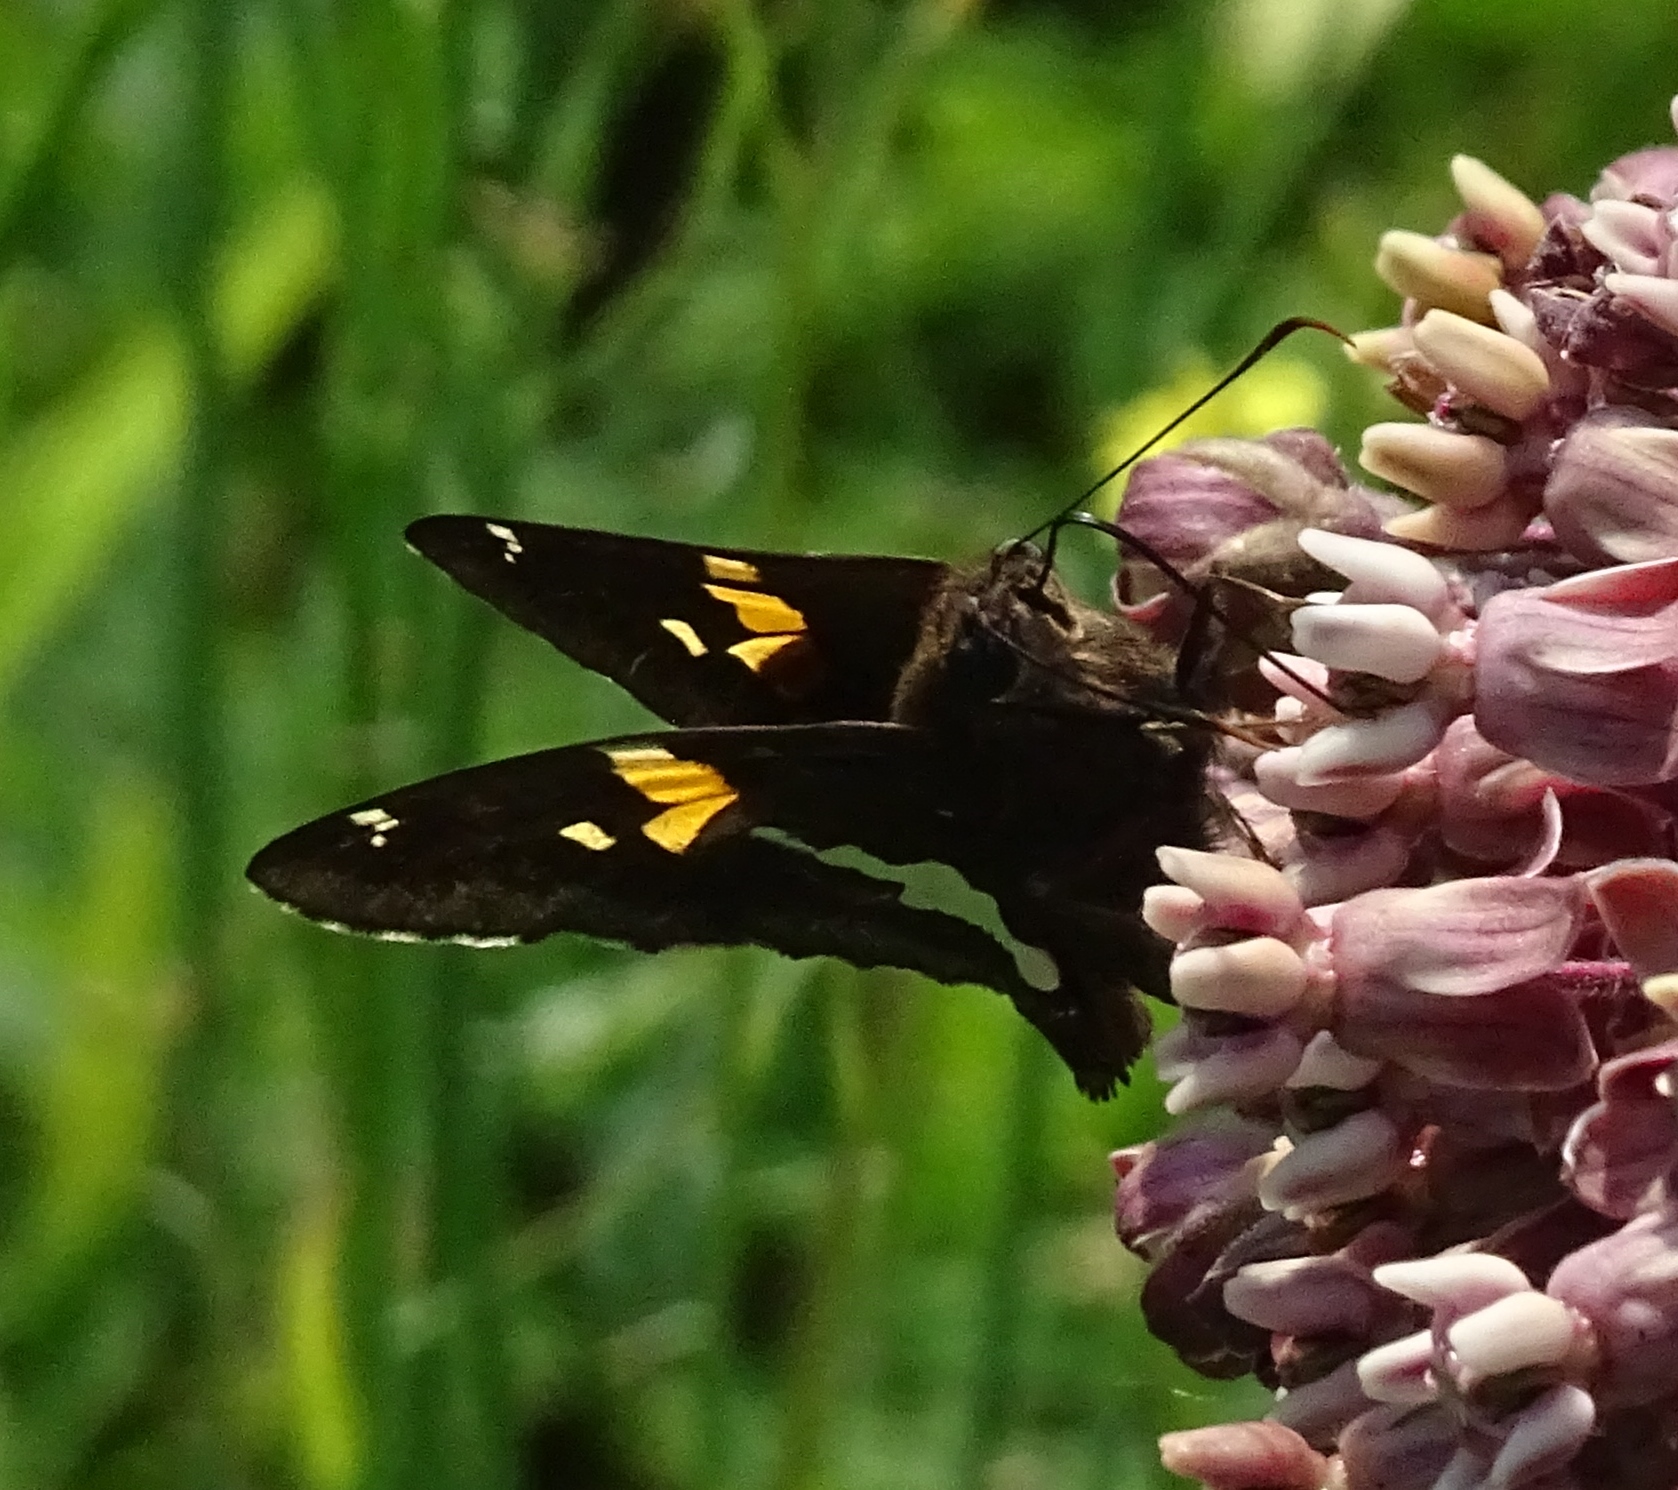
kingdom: Animalia
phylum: Arthropoda
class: Insecta
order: Lepidoptera
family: Hesperiidae
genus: Epargyreus
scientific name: Epargyreus clarus
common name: Silver-spotted skipper
